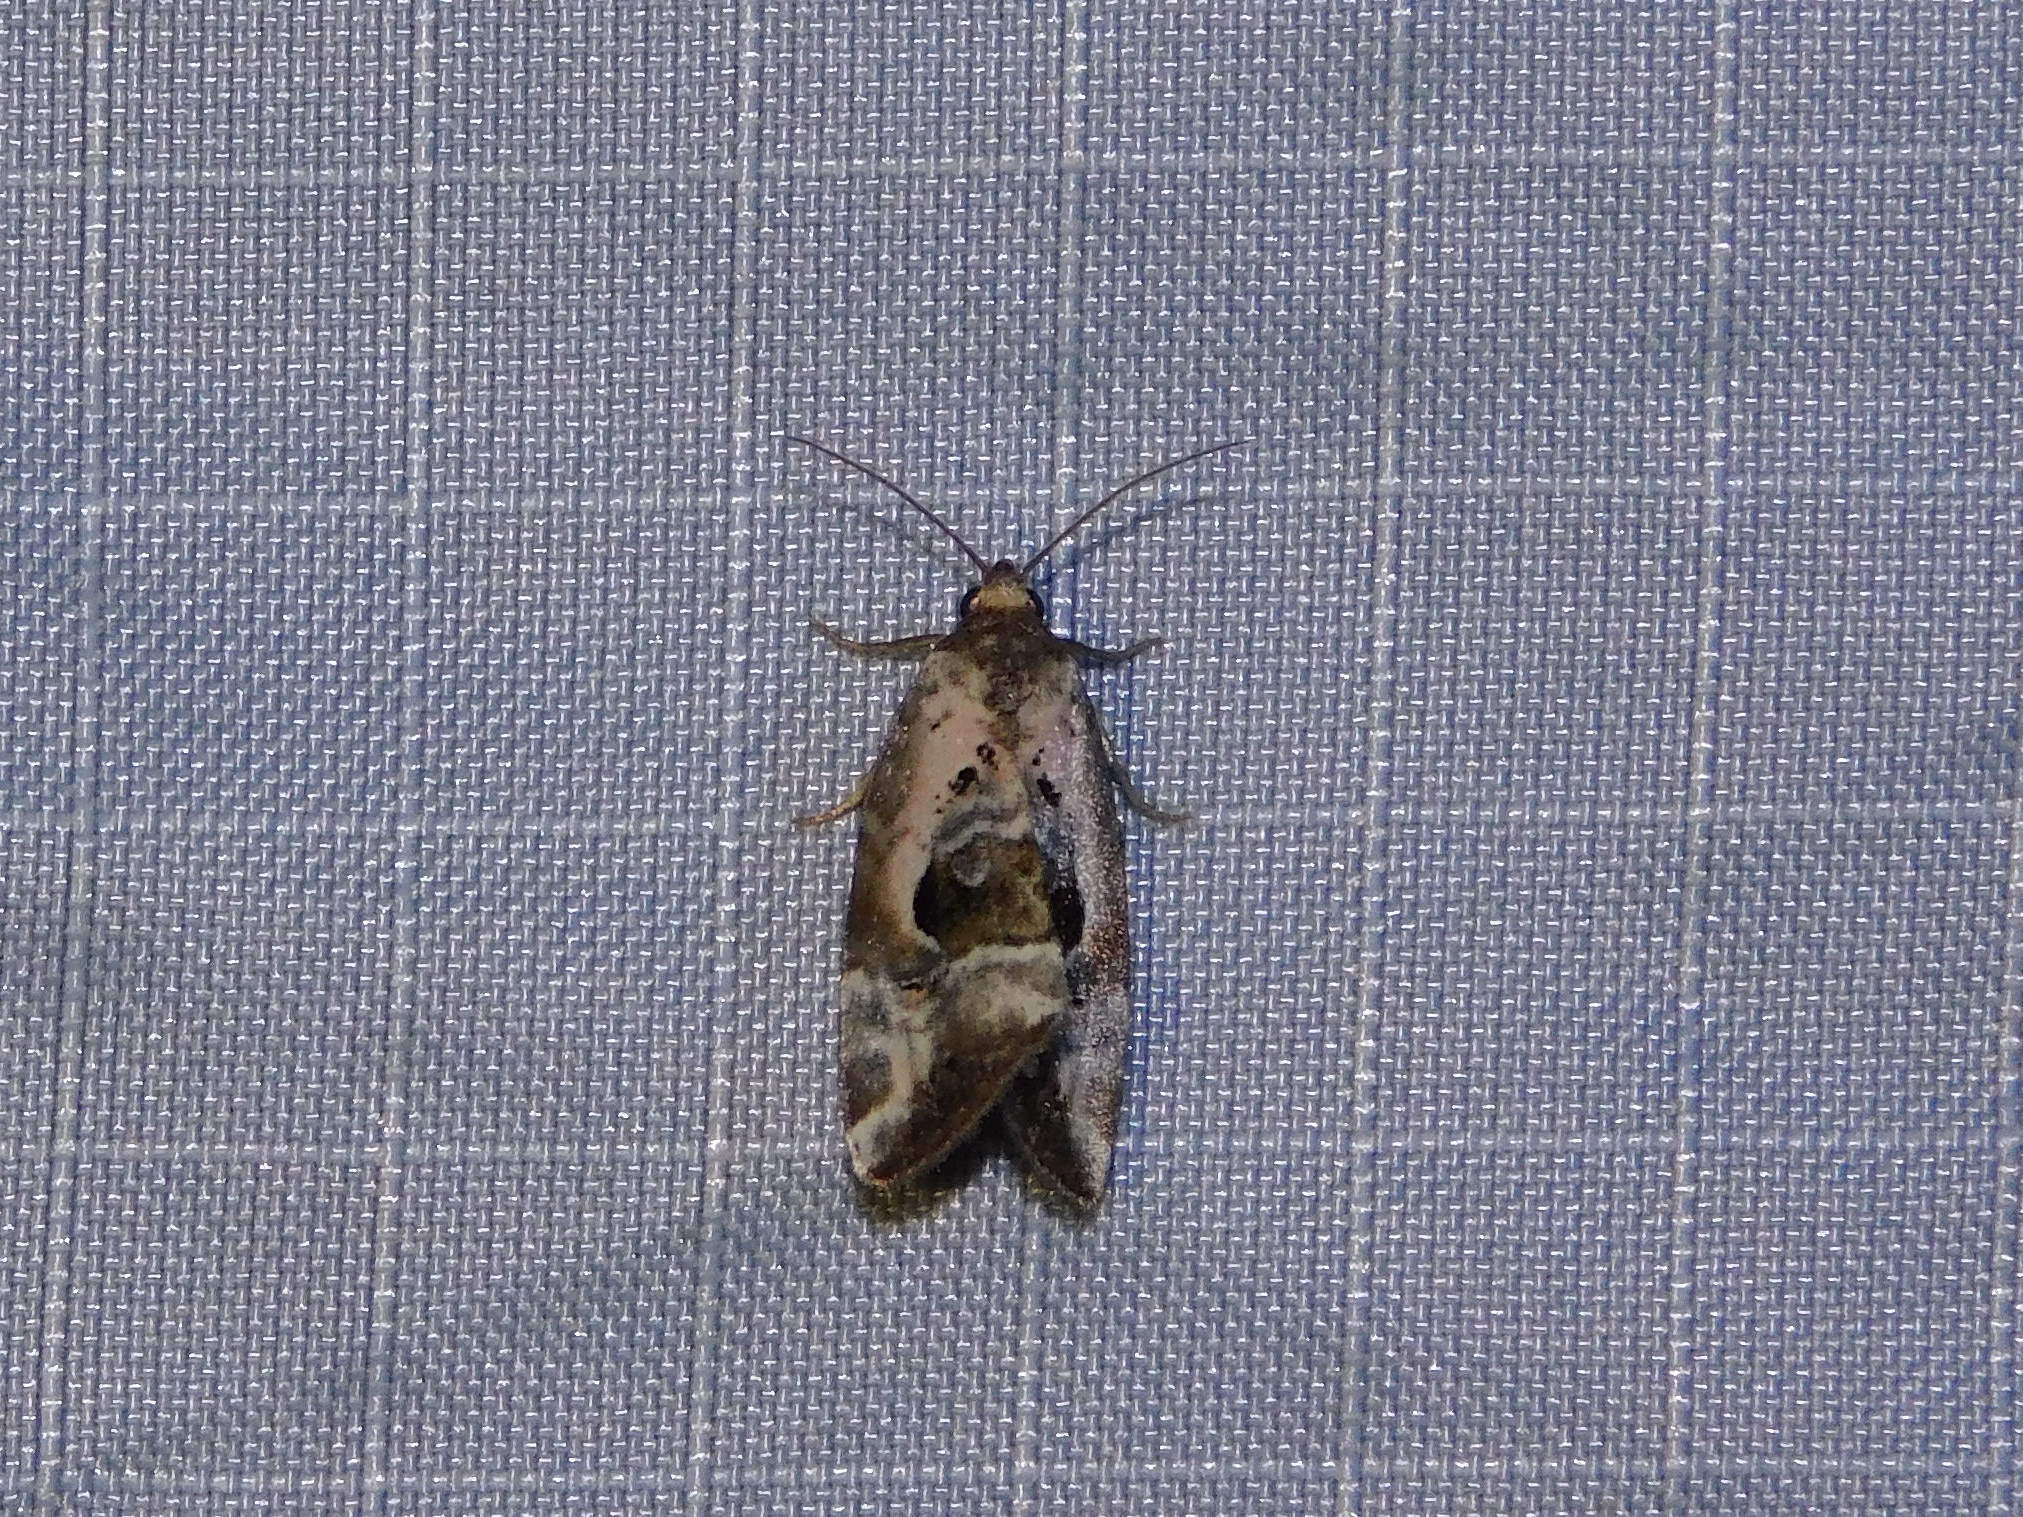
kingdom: Animalia
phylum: Arthropoda
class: Insecta
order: Lepidoptera
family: Noctuidae
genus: Elaphria
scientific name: Elaphria venustula
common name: Rosy marbled
